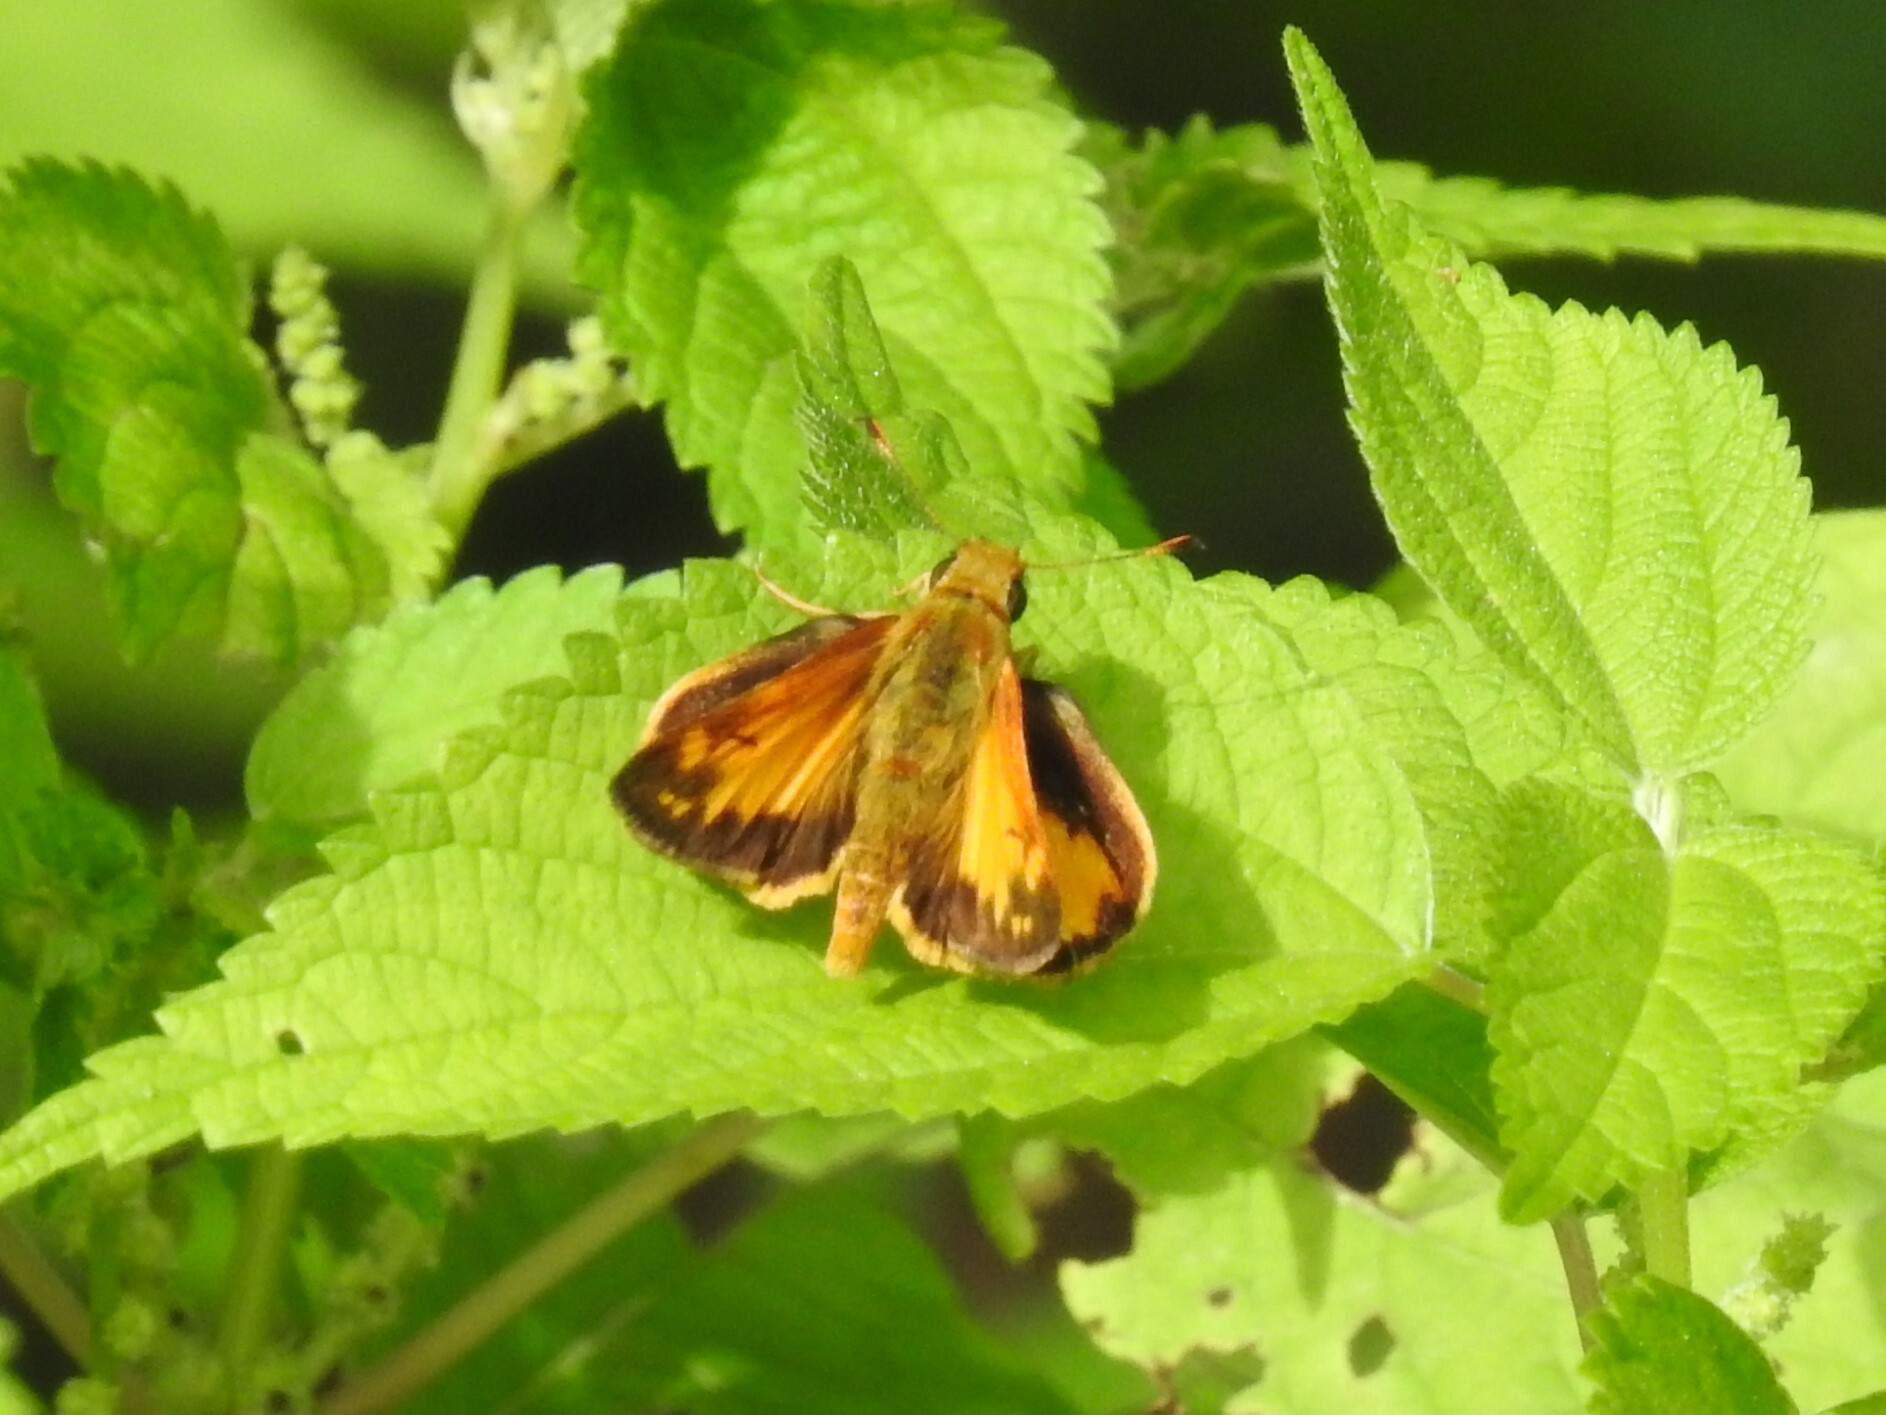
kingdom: Animalia
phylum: Arthropoda
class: Insecta
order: Lepidoptera
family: Hesperiidae
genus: Lon
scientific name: Lon zabulon
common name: Zabulon skipper
